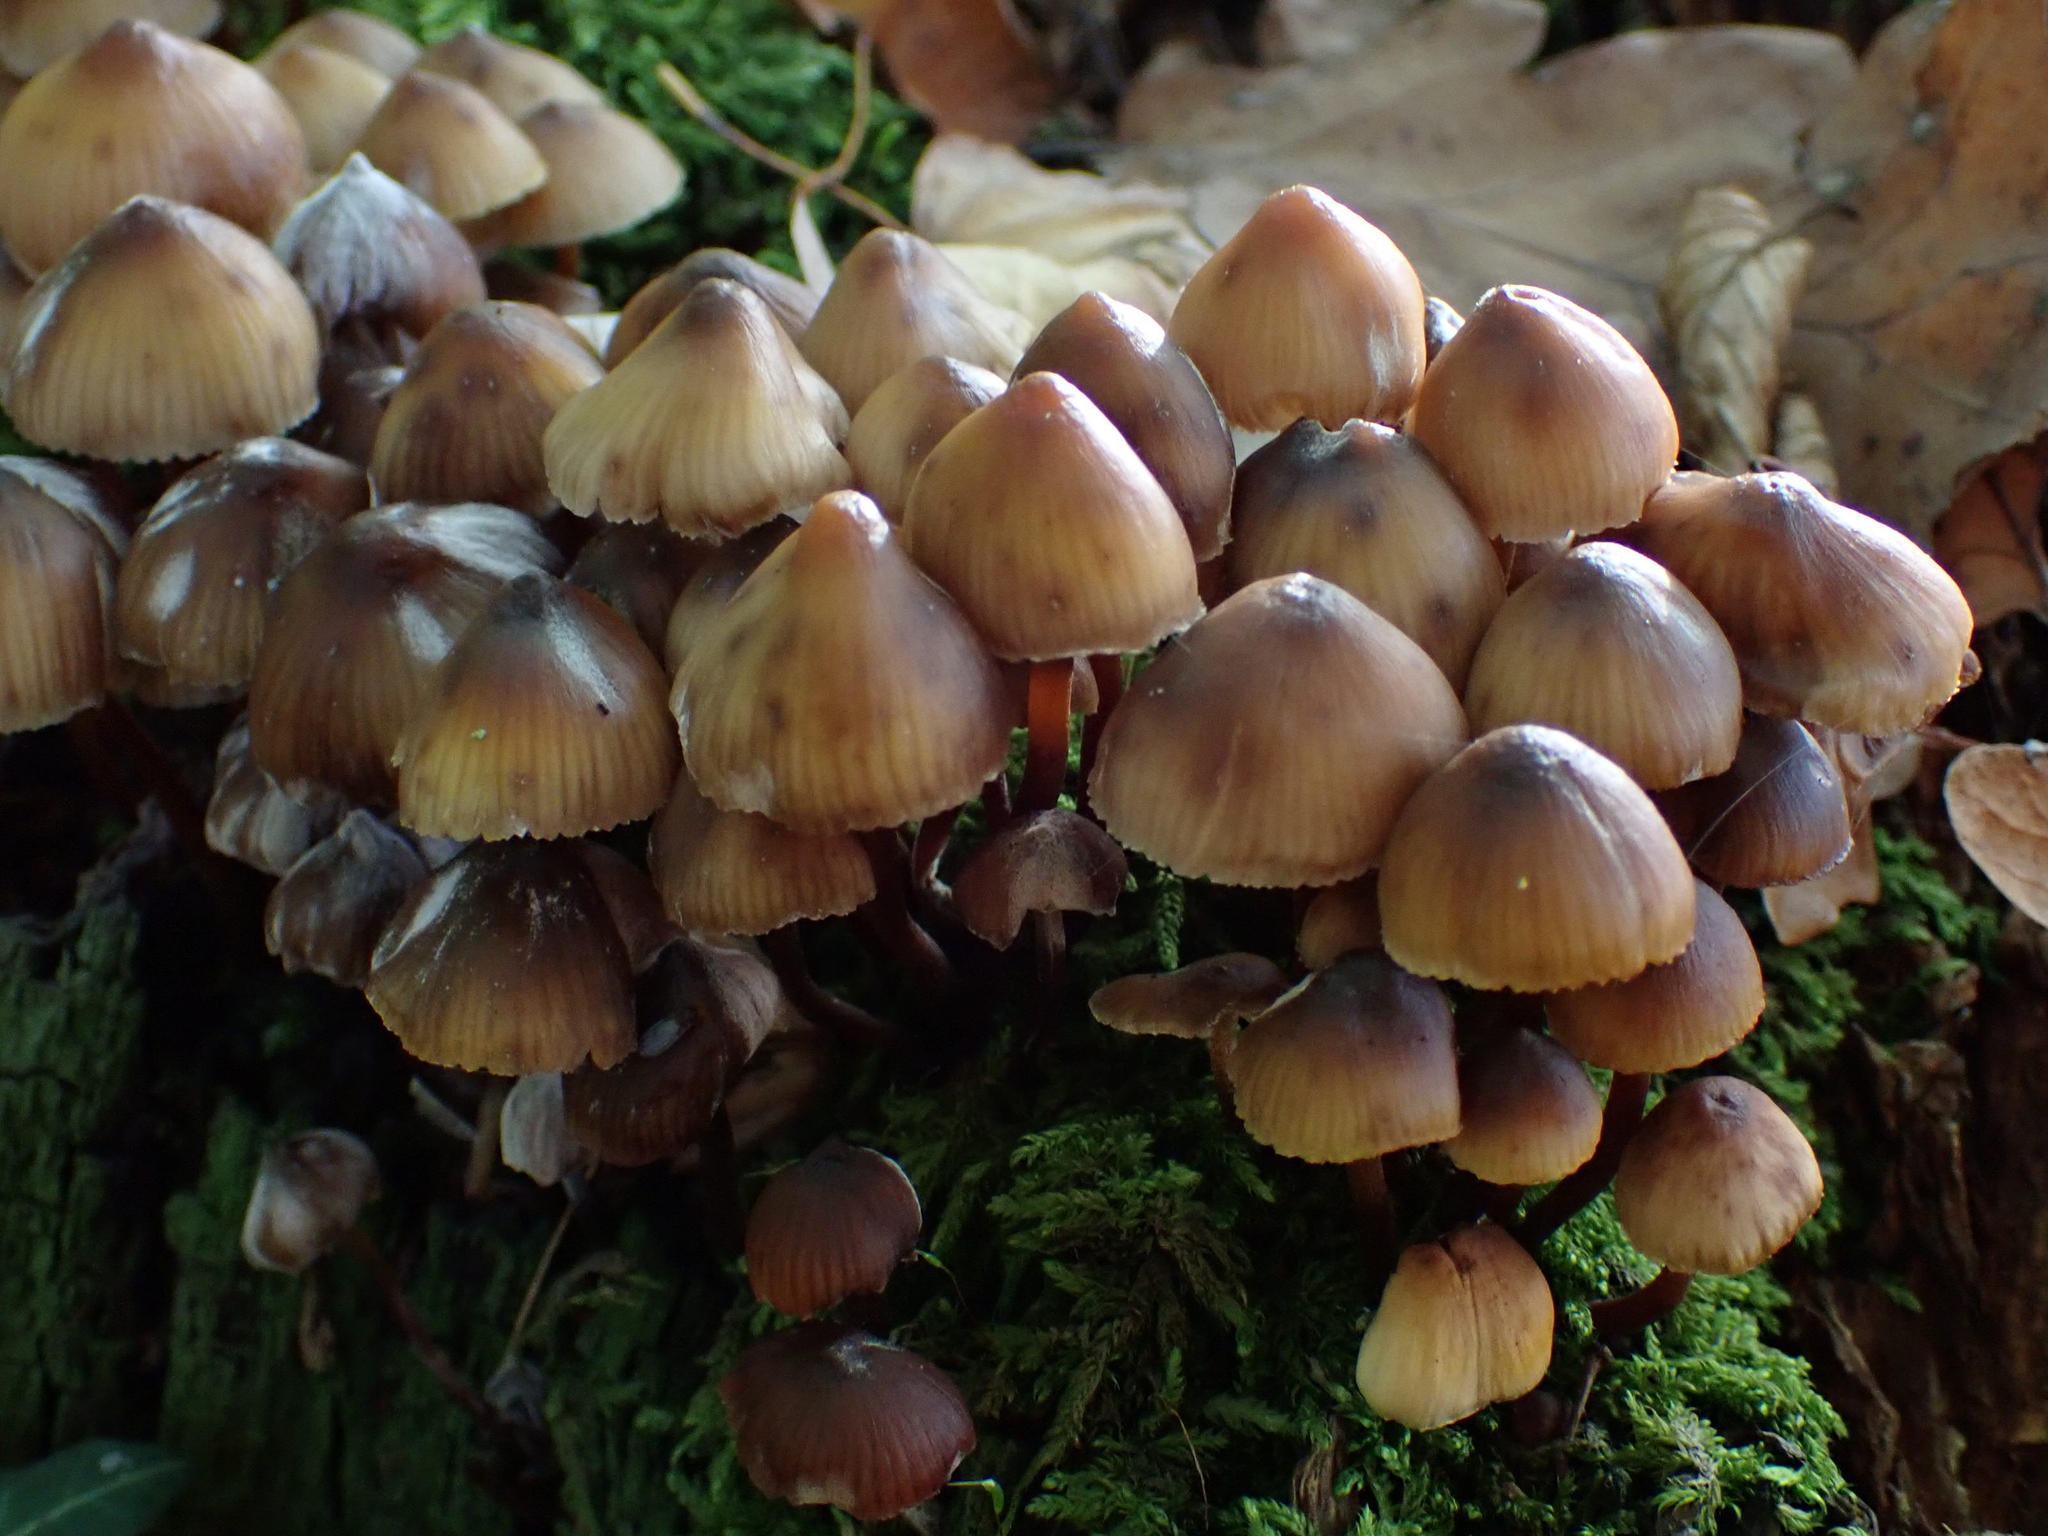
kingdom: Fungi
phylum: Basidiomycota
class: Agaricomycetes
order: Agaricales
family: Mycenaceae
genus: Mycena
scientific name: Mycena inclinata
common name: Clustered bonnet
